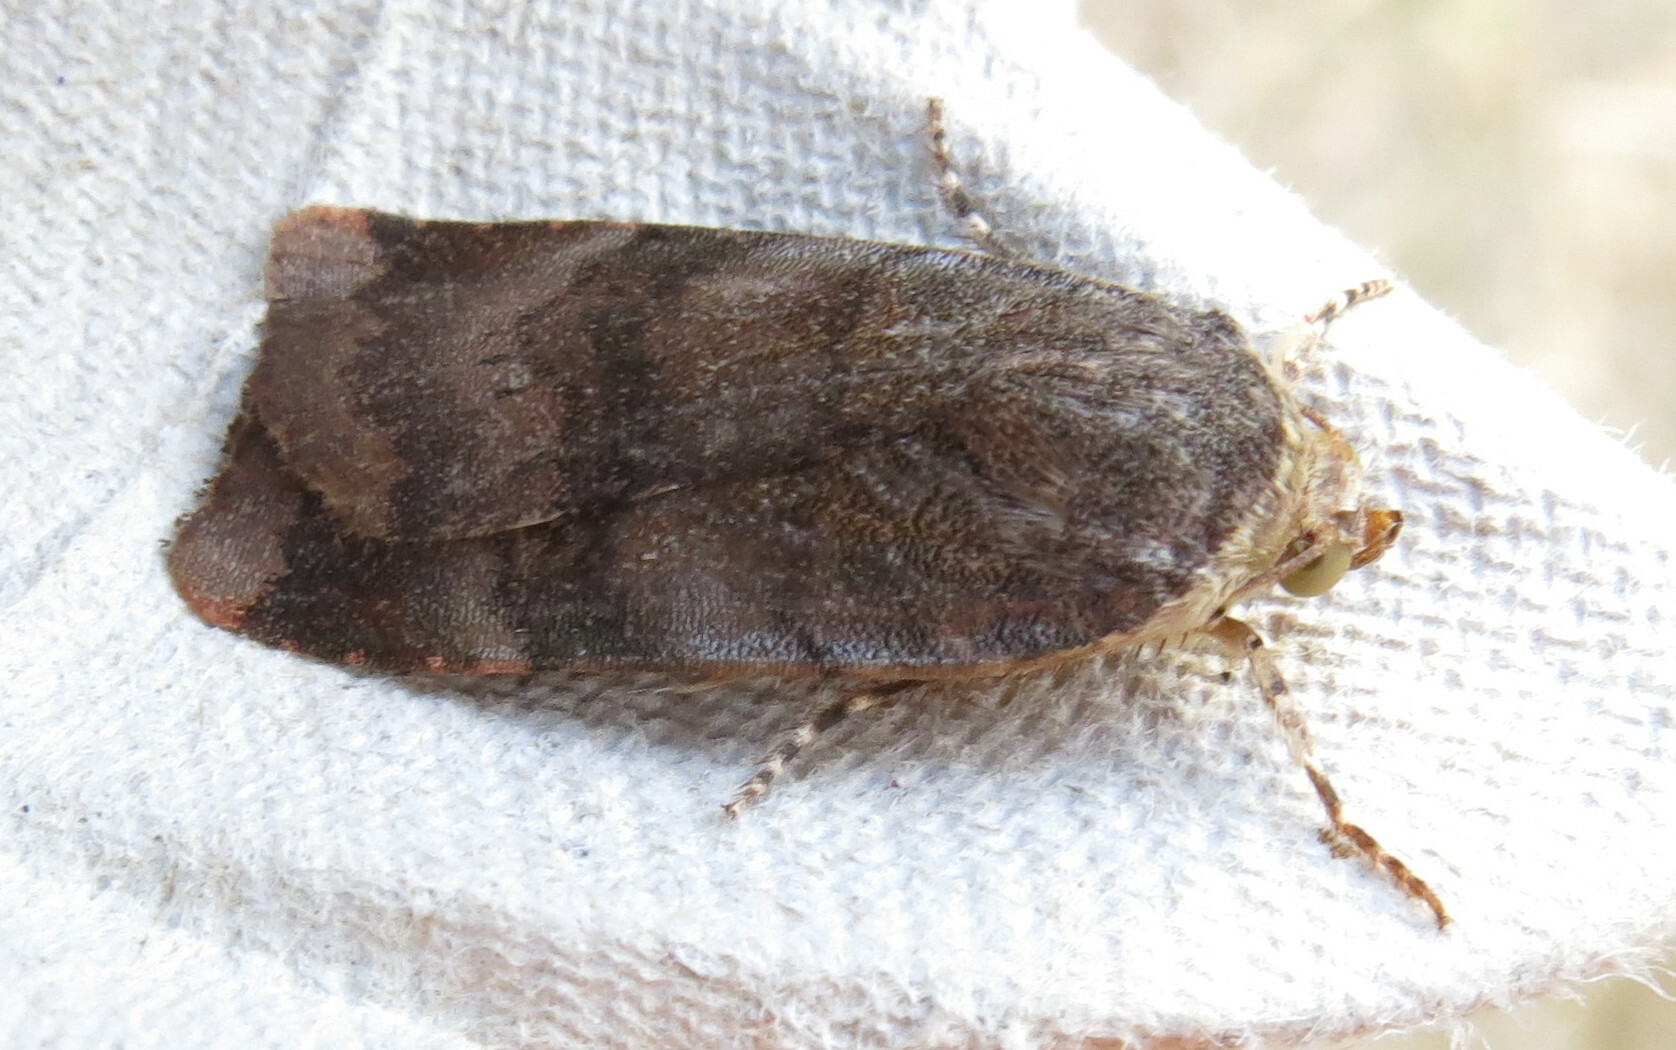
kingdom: Animalia
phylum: Arthropoda
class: Insecta
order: Lepidoptera
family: Noctuidae
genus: Noctua
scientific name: Noctua janthe
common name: Lesser broad-bordered yellow underwing
